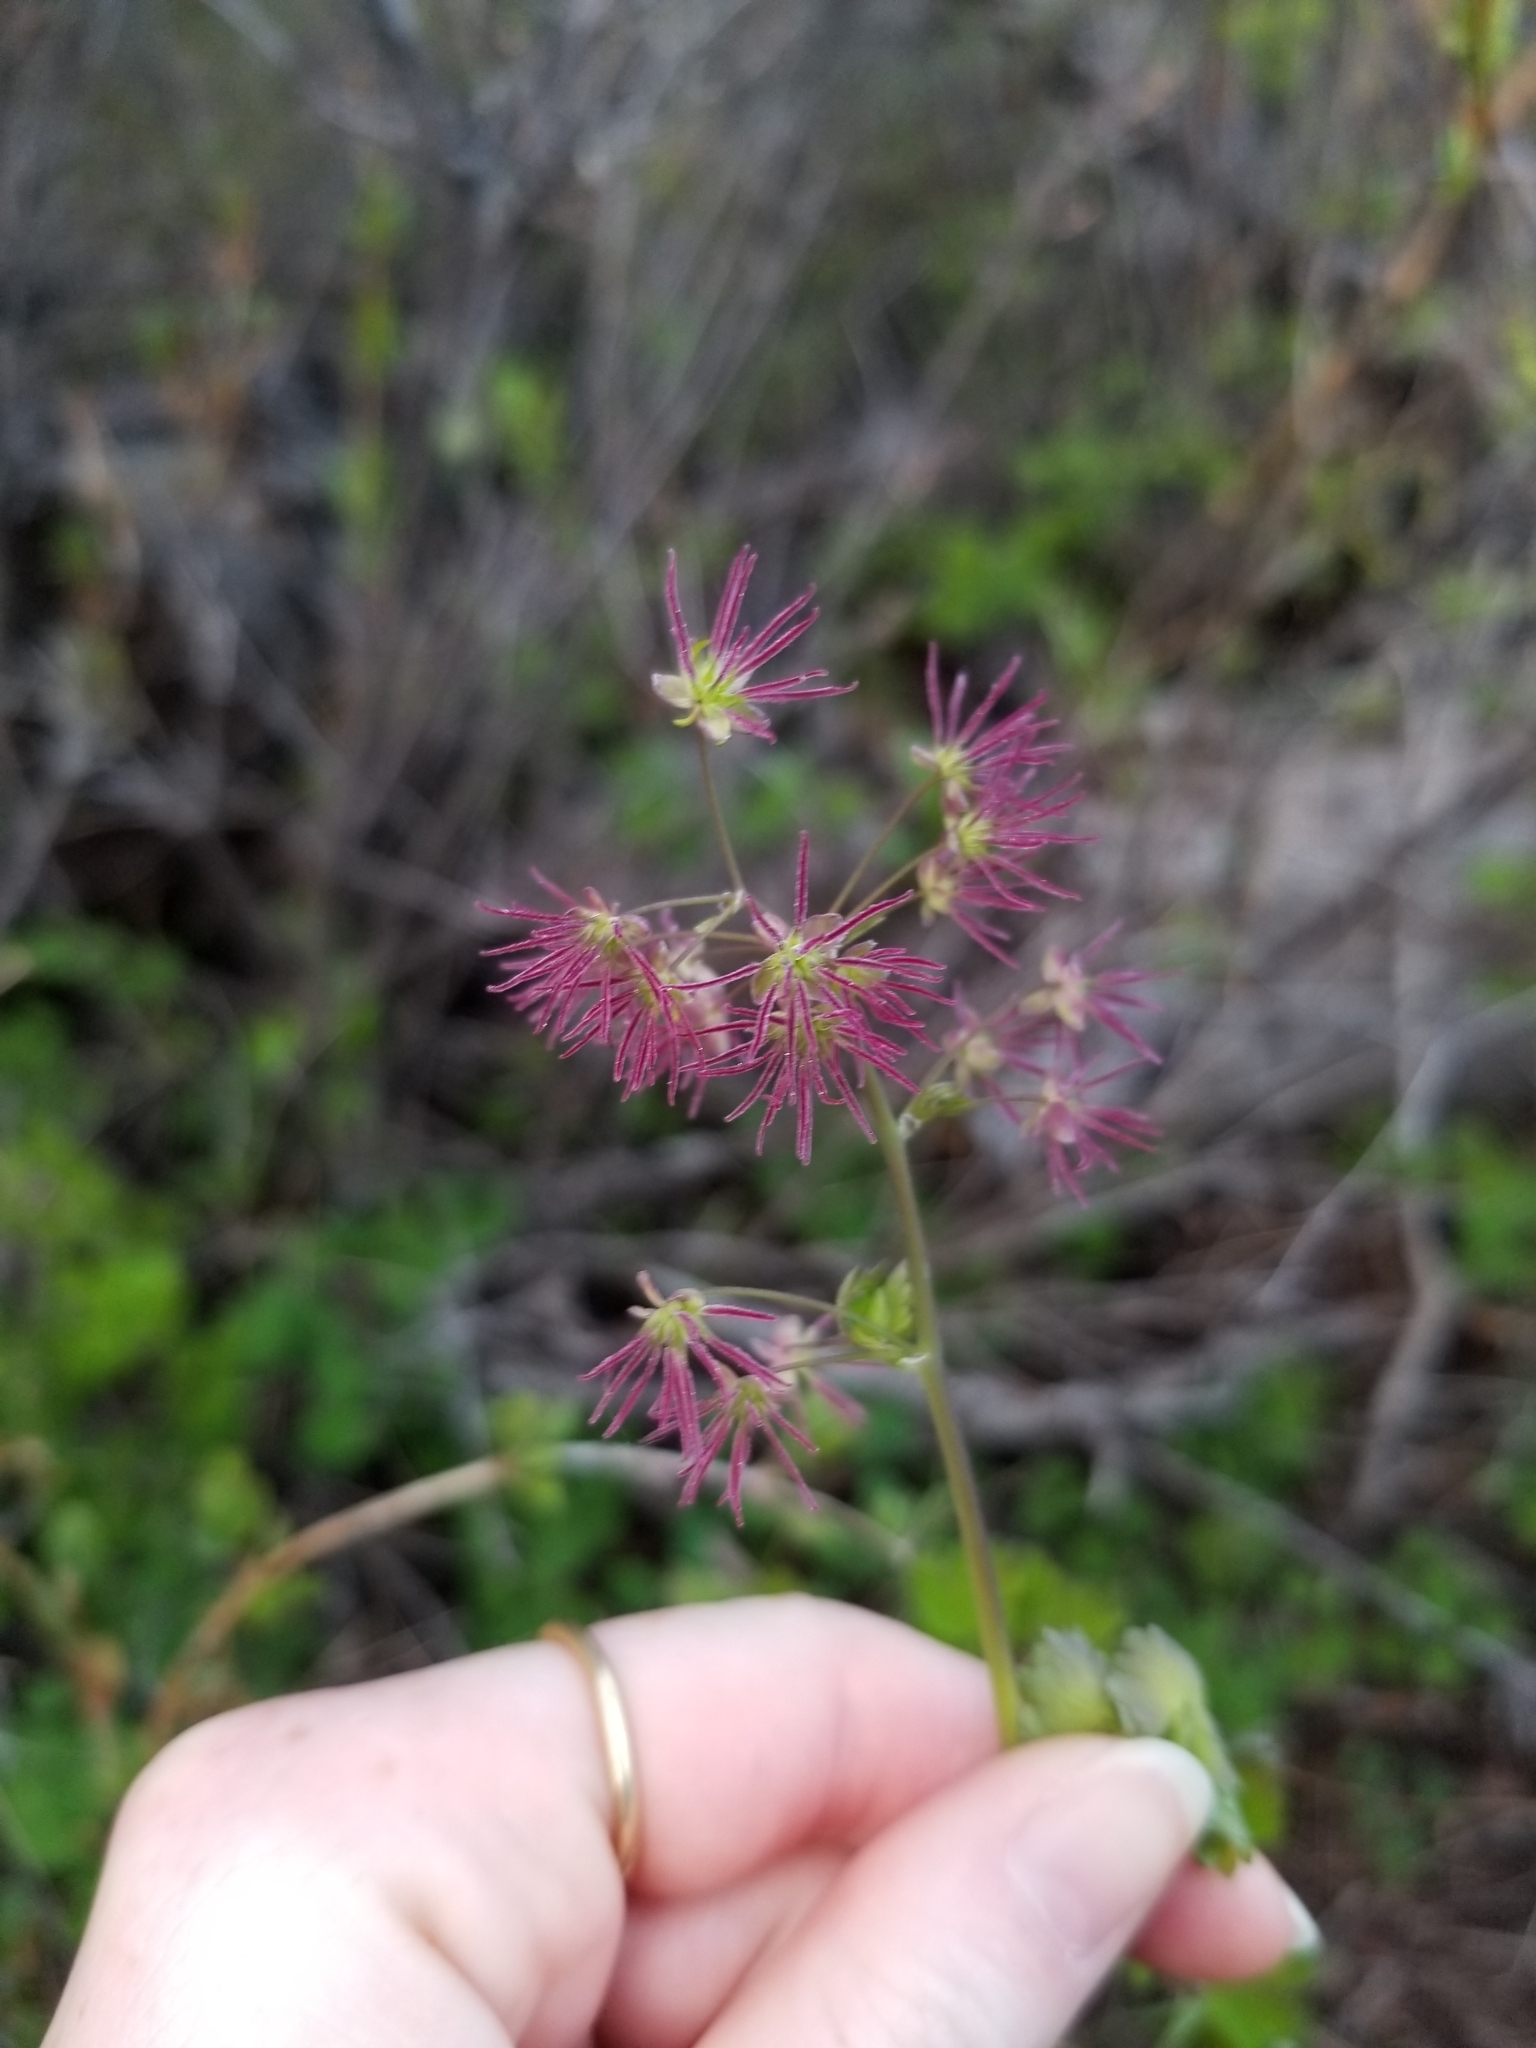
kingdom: Plantae
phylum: Tracheophyta
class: Magnoliopsida
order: Ranunculales
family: Ranunculaceae
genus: Thalictrum
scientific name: Thalictrum occidentale
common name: Western meadow-rue
